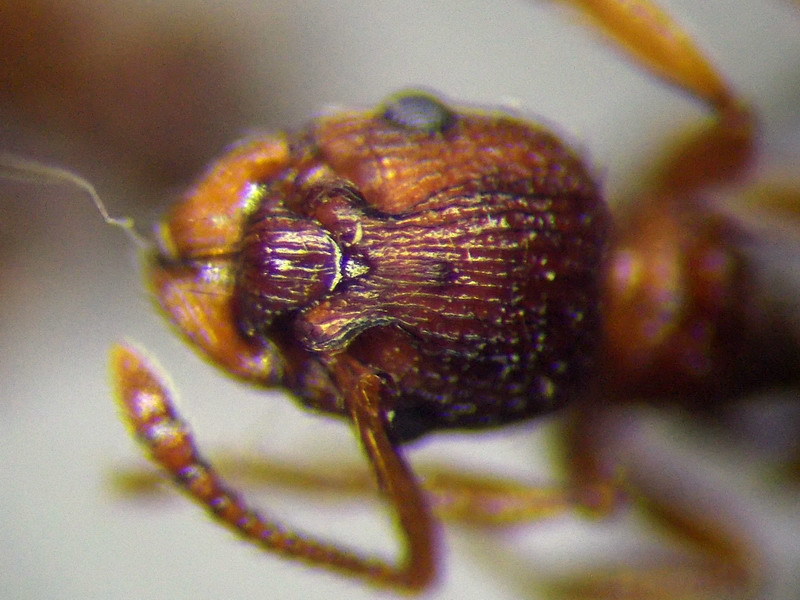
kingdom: Animalia
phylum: Arthropoda
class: Insecta
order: Hymenoptera
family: Formicidae
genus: Myrmica
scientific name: Myrmica sabuleti
